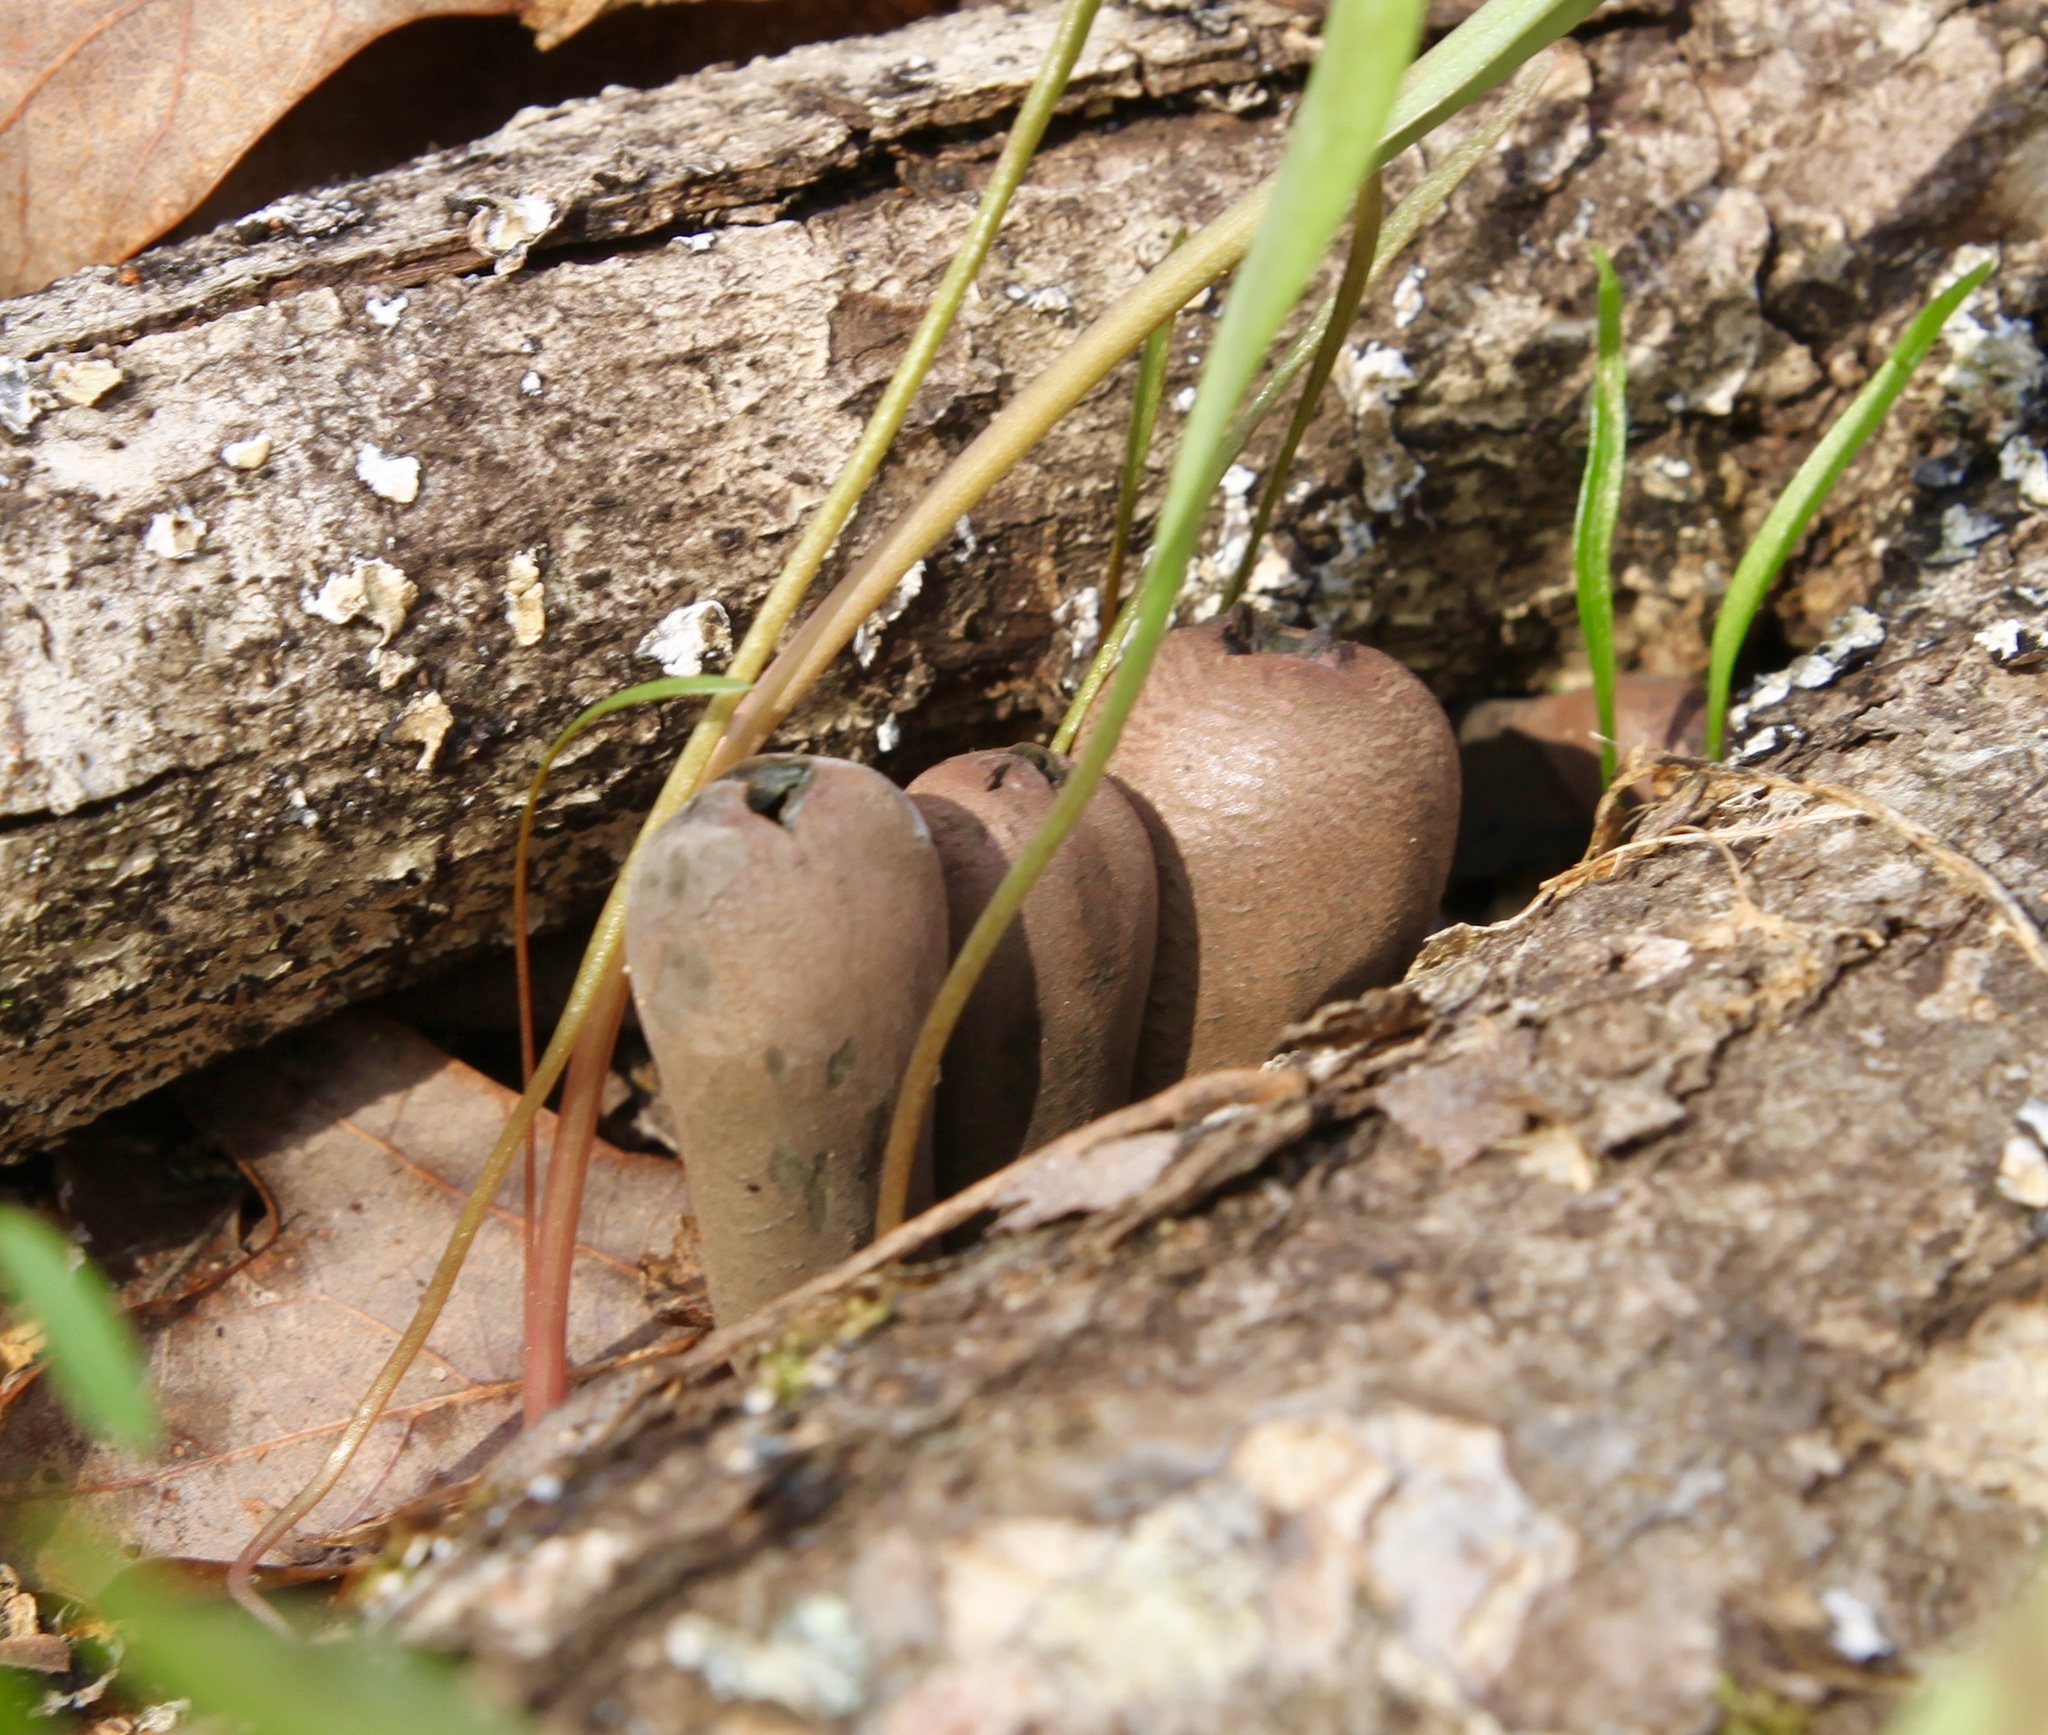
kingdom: Fungi
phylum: Ascomycota
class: Pezizomycetes
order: Pezizales
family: Sarcosomataceae
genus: Urnula
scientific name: Urnula craterium
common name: Devil's urn
